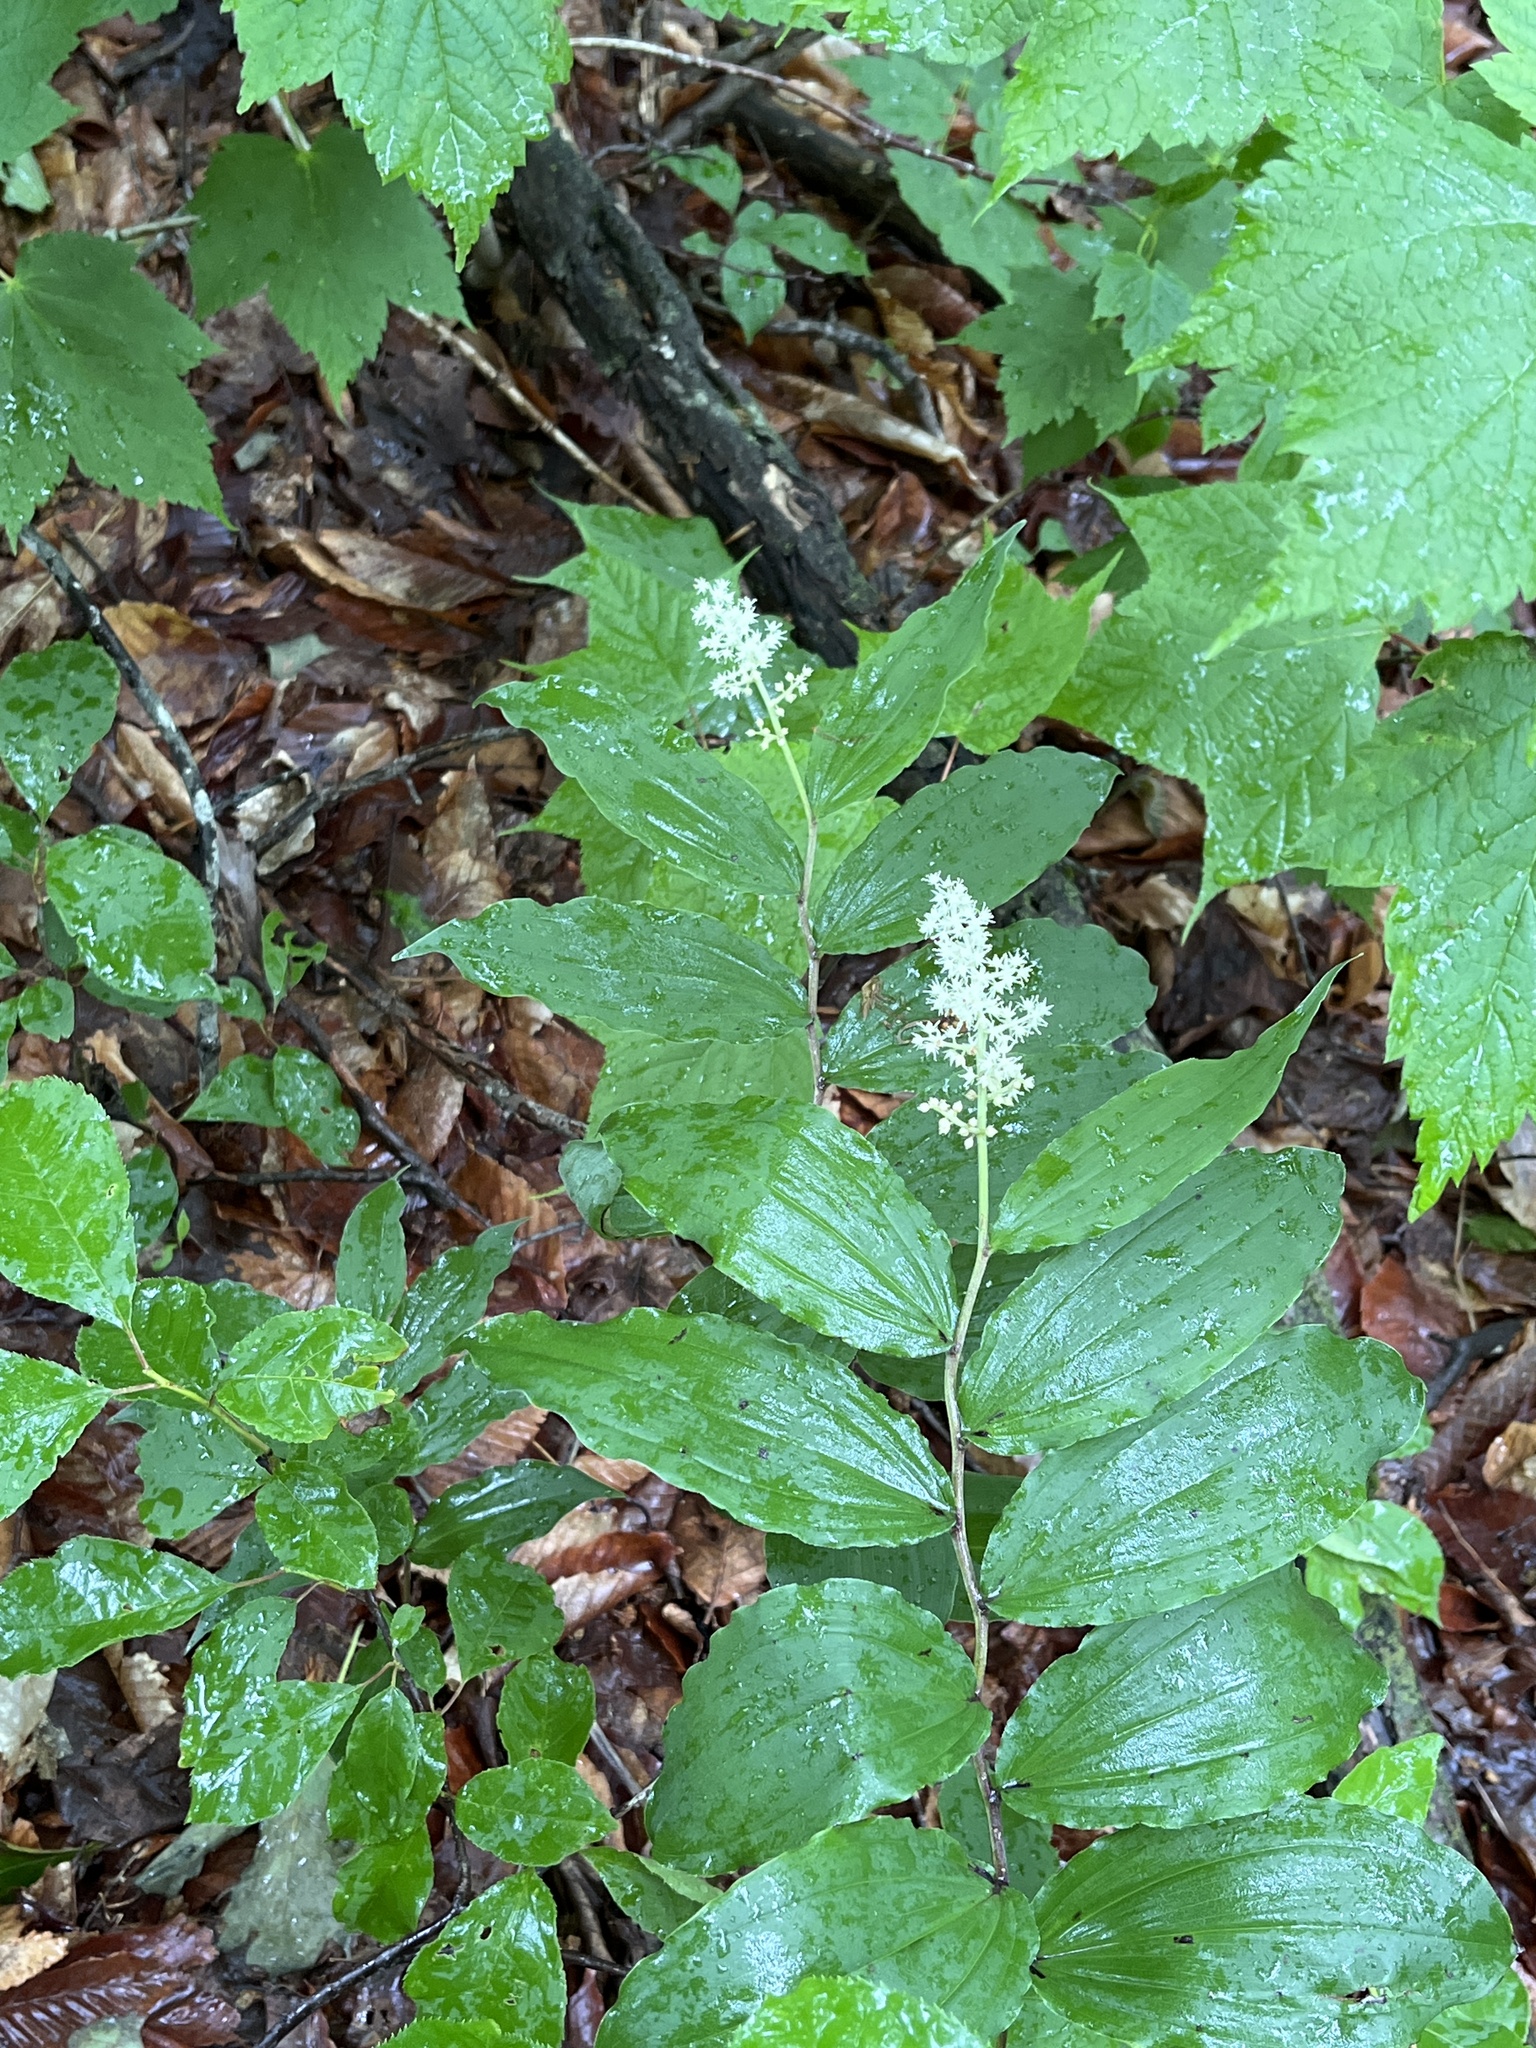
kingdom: Plantae
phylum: Tracheophyta
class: Liliopsida
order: Asparagales
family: Asparagaceae
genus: Maianthemum
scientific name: Maianthemum racemosum
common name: False spikenard
